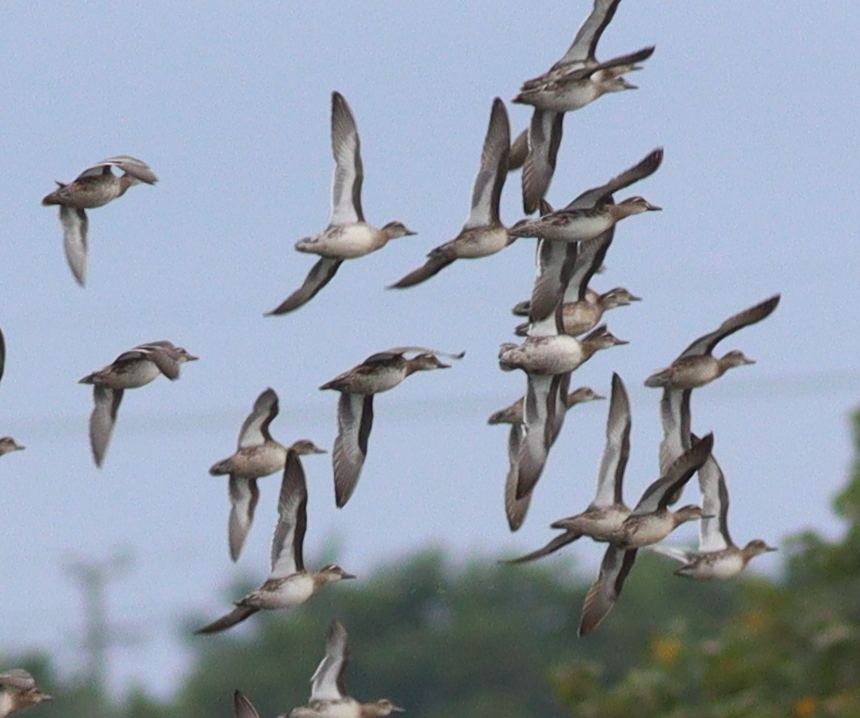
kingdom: Animalia
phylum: Chordata
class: Aves
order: Anseriformes
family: Anatidae
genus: Spatula
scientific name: Spatula querquedula
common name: Garganey
